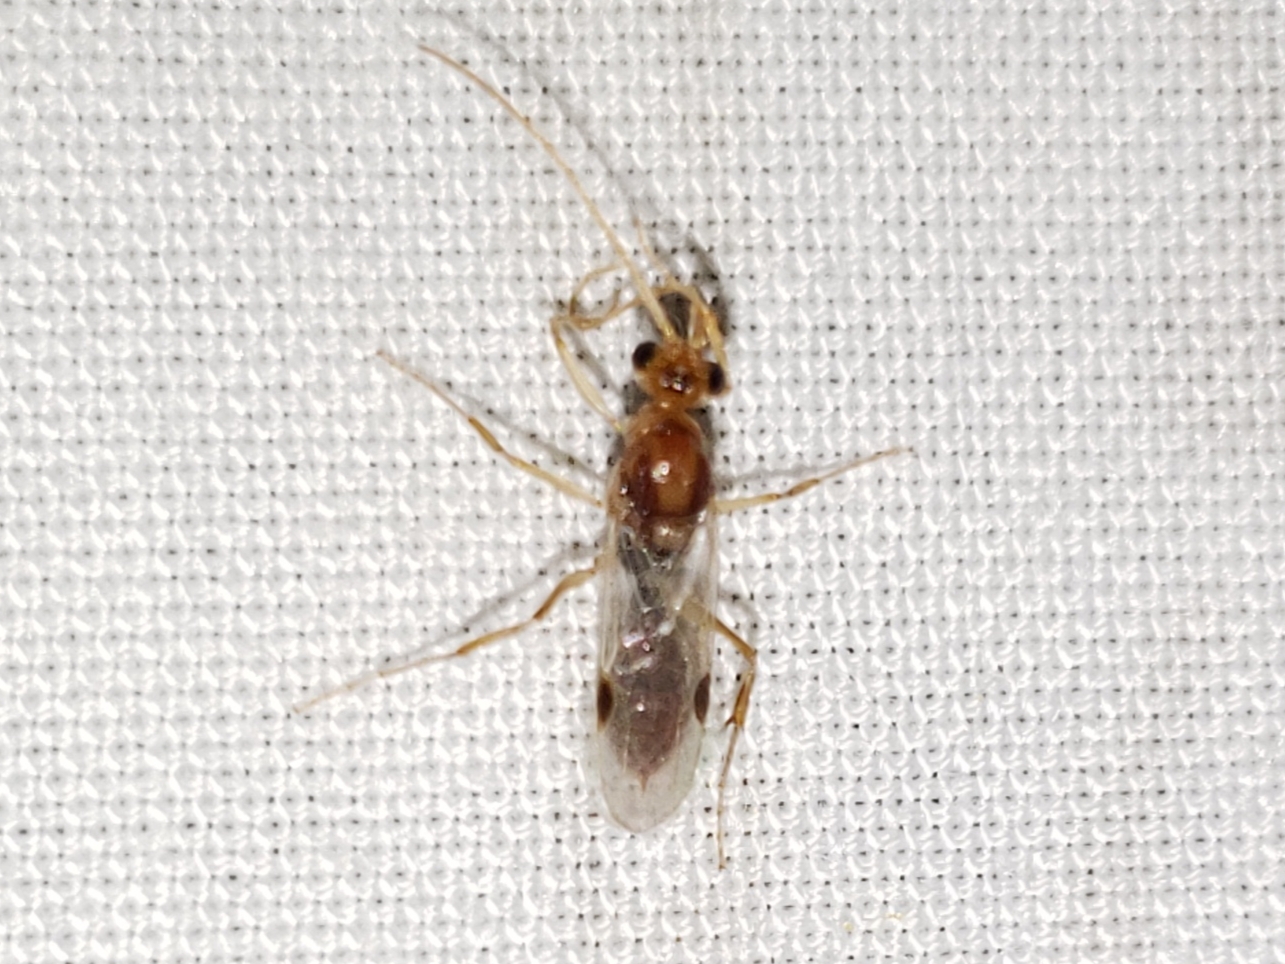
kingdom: Animalia
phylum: Arthropoda
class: Insecta
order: Hymenoptera
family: Formicidae
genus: Odontomachus
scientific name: Odontomachus ruginodis
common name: Trapjaw ant
